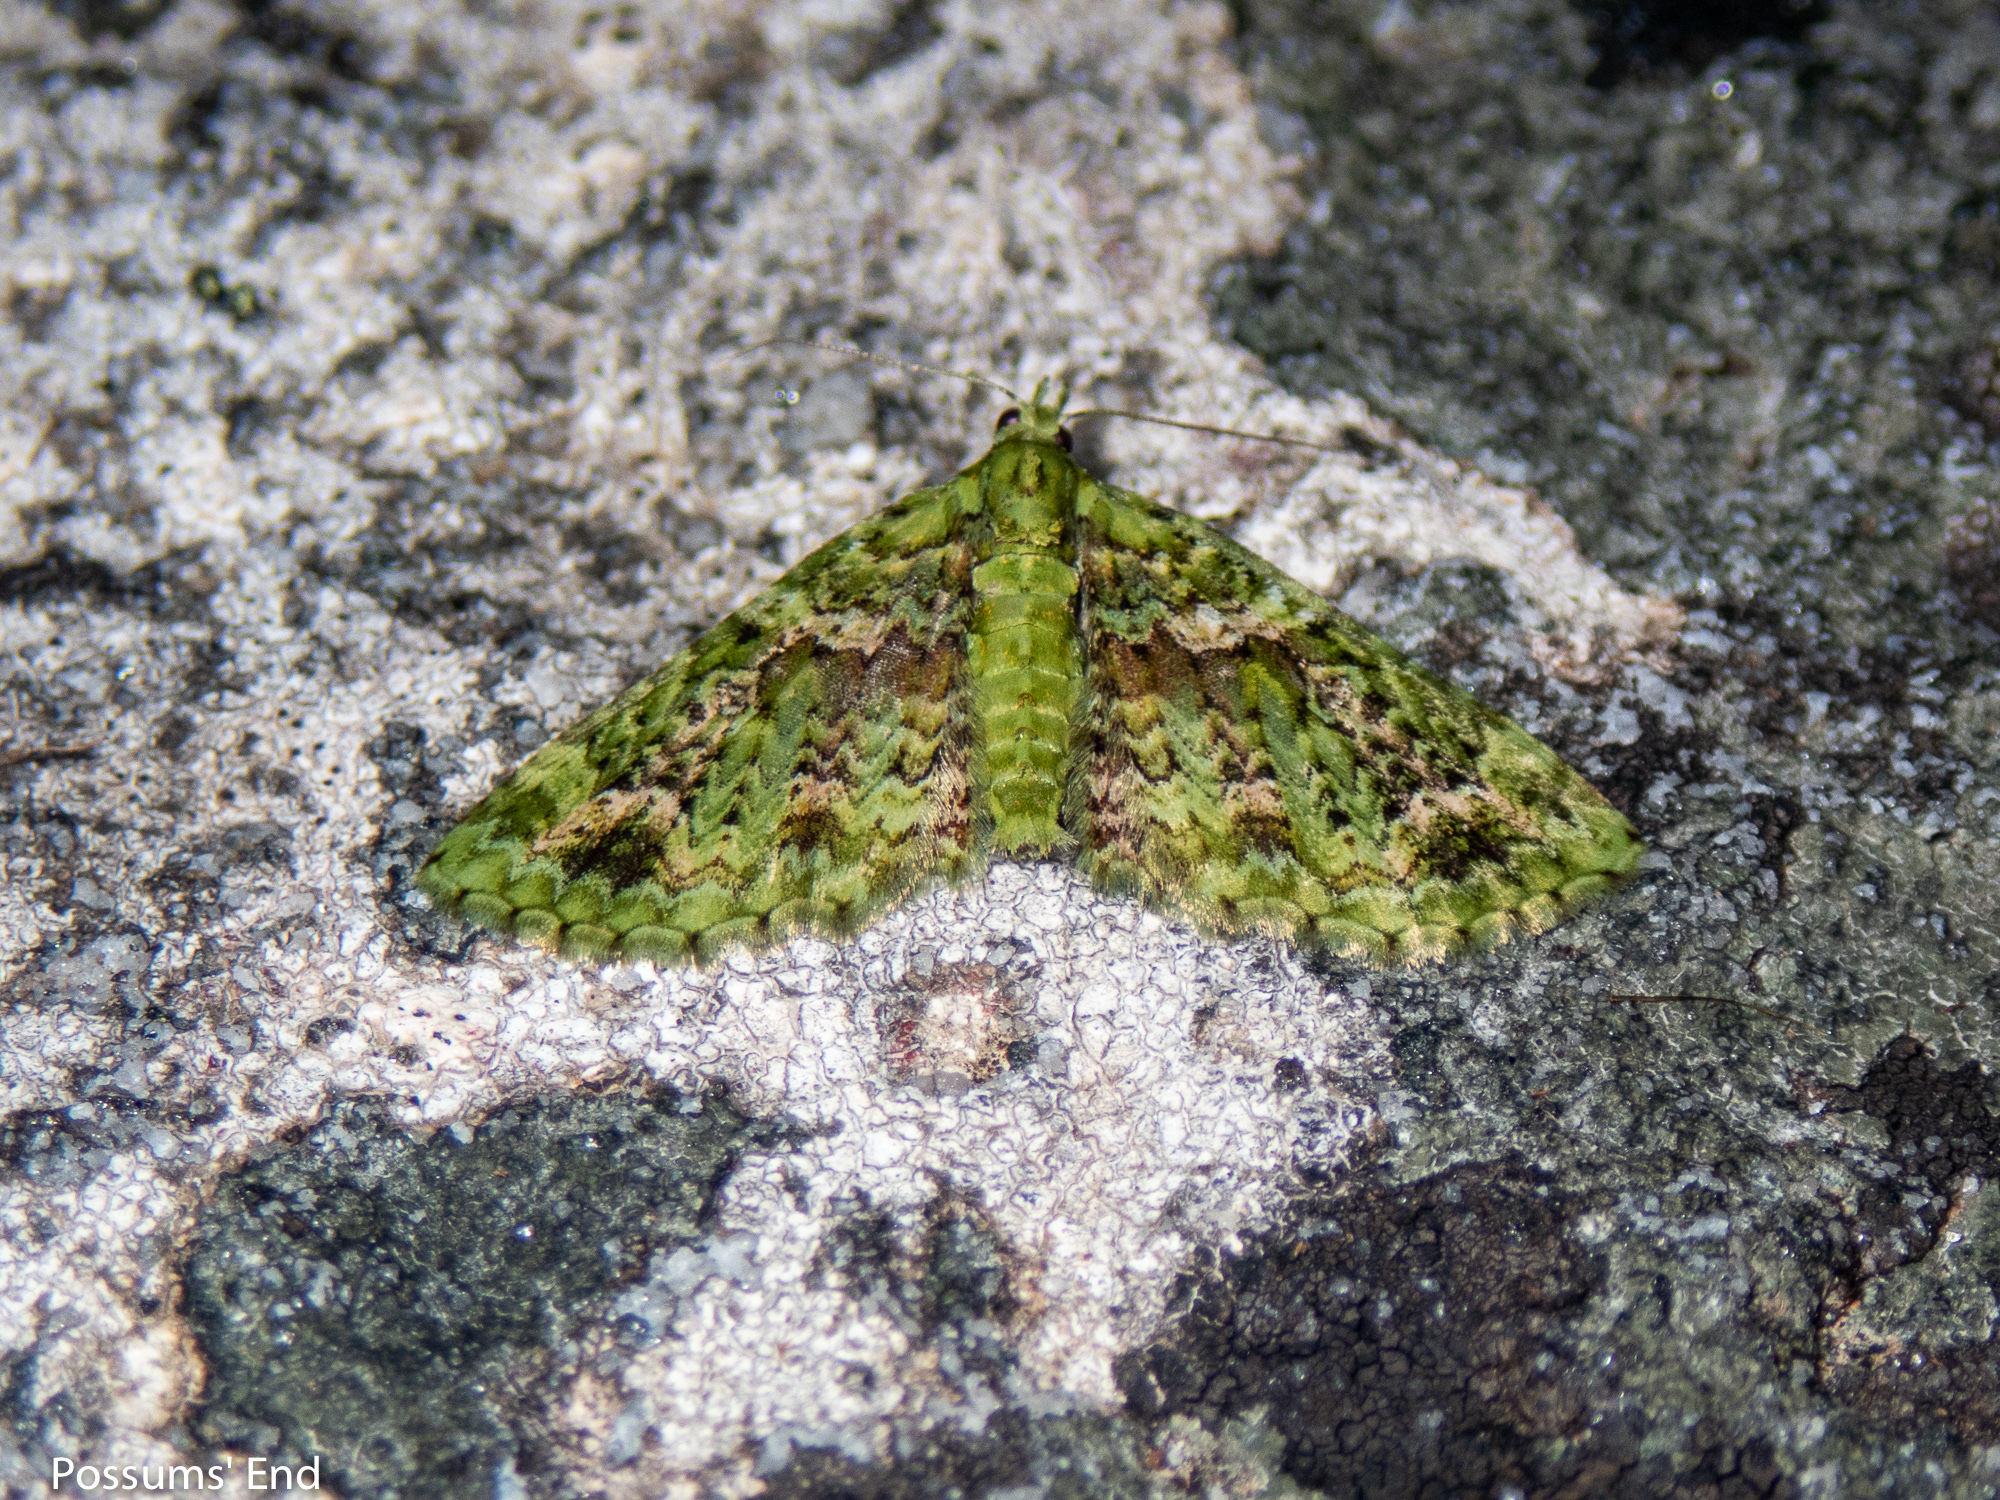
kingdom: Animalia
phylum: Arthropoda
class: Insecta
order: Lepidoptera
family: Geometridae
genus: Pasiphila
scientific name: Pasiphila muscosata
